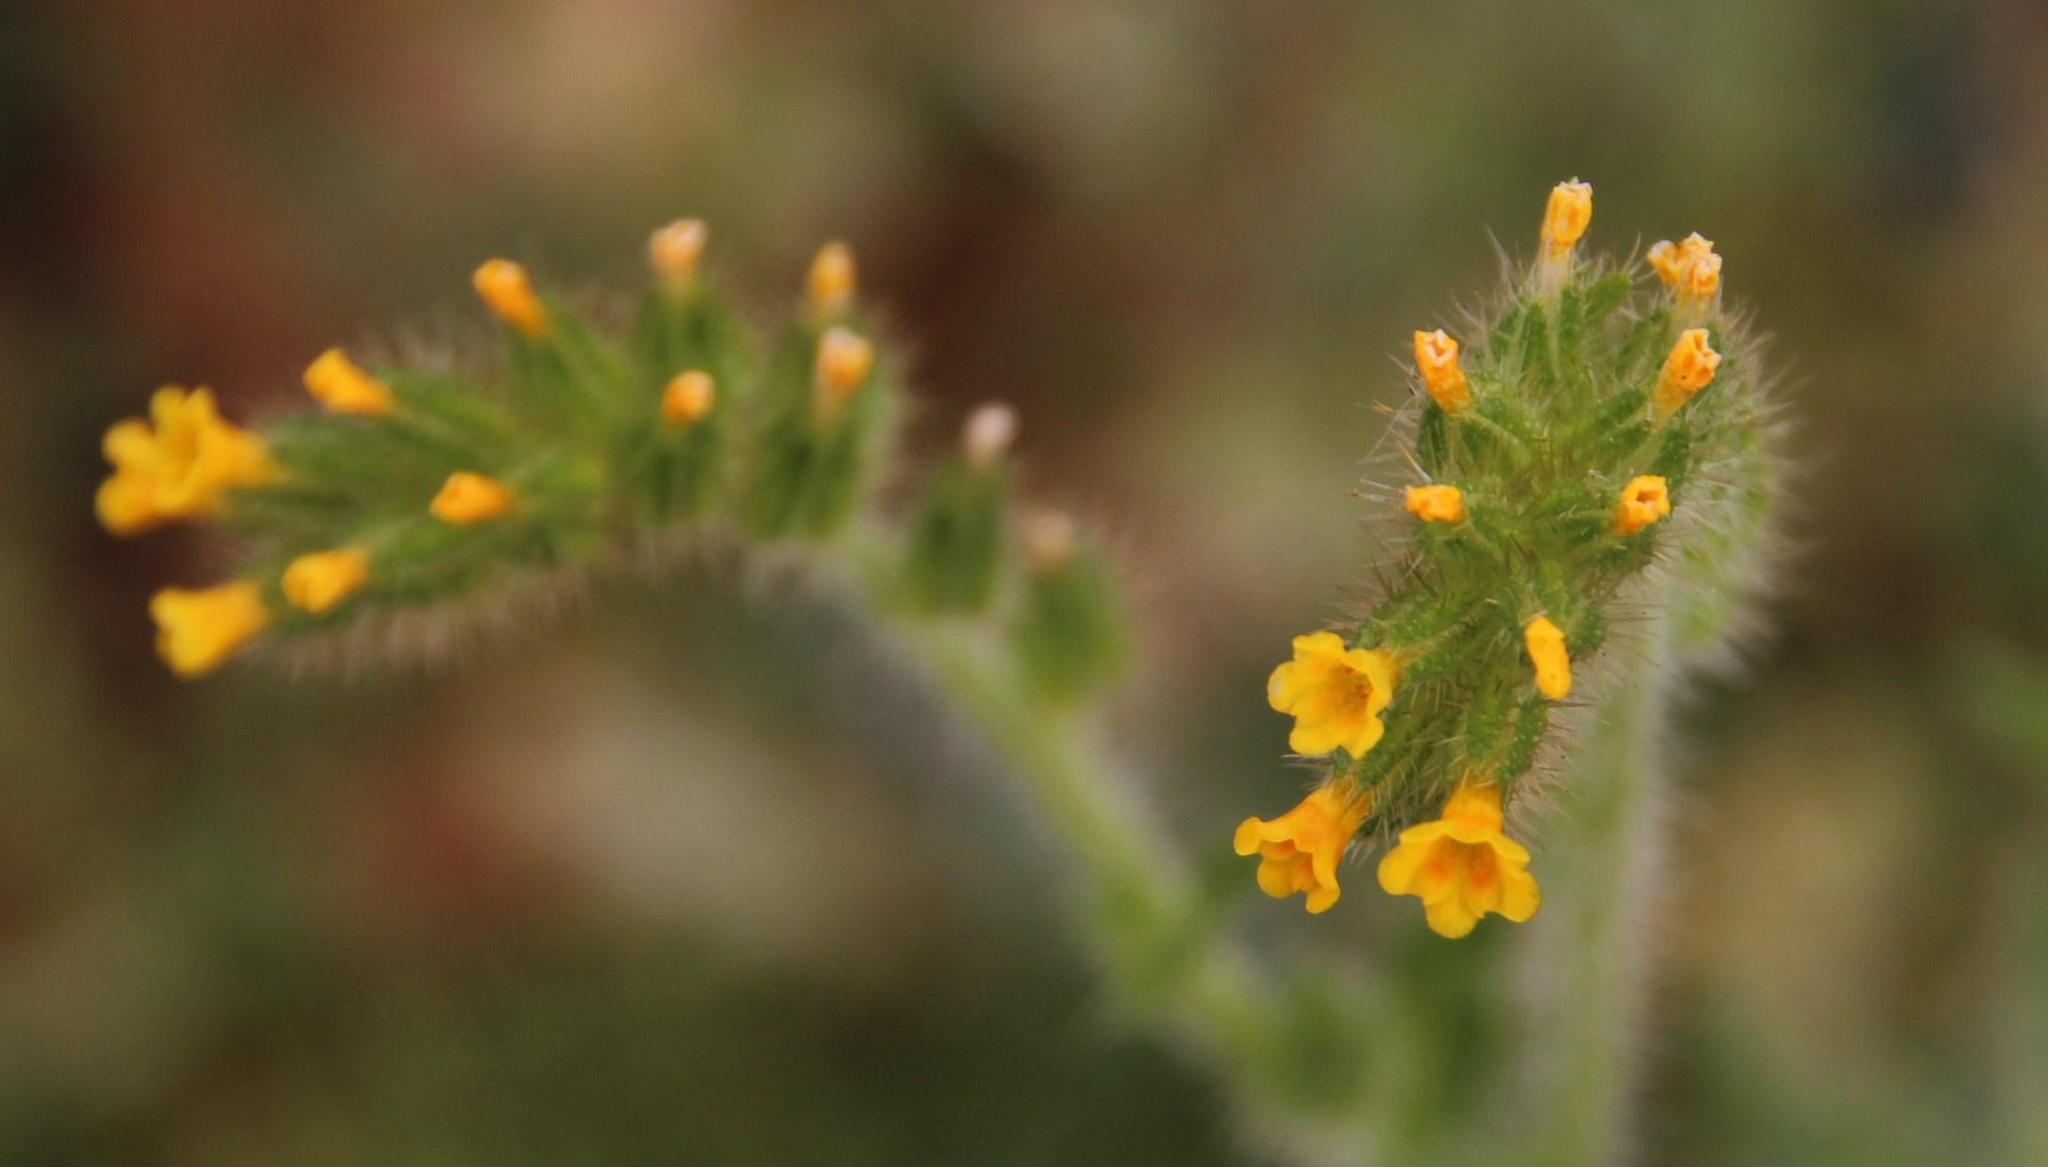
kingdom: Plantae
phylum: Tracheophyta
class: Magnoliopsida
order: Boraginales
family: Boraginaceae
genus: Amsinckia
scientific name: Amsinckia menziesii
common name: Menzies' fiddleneck
